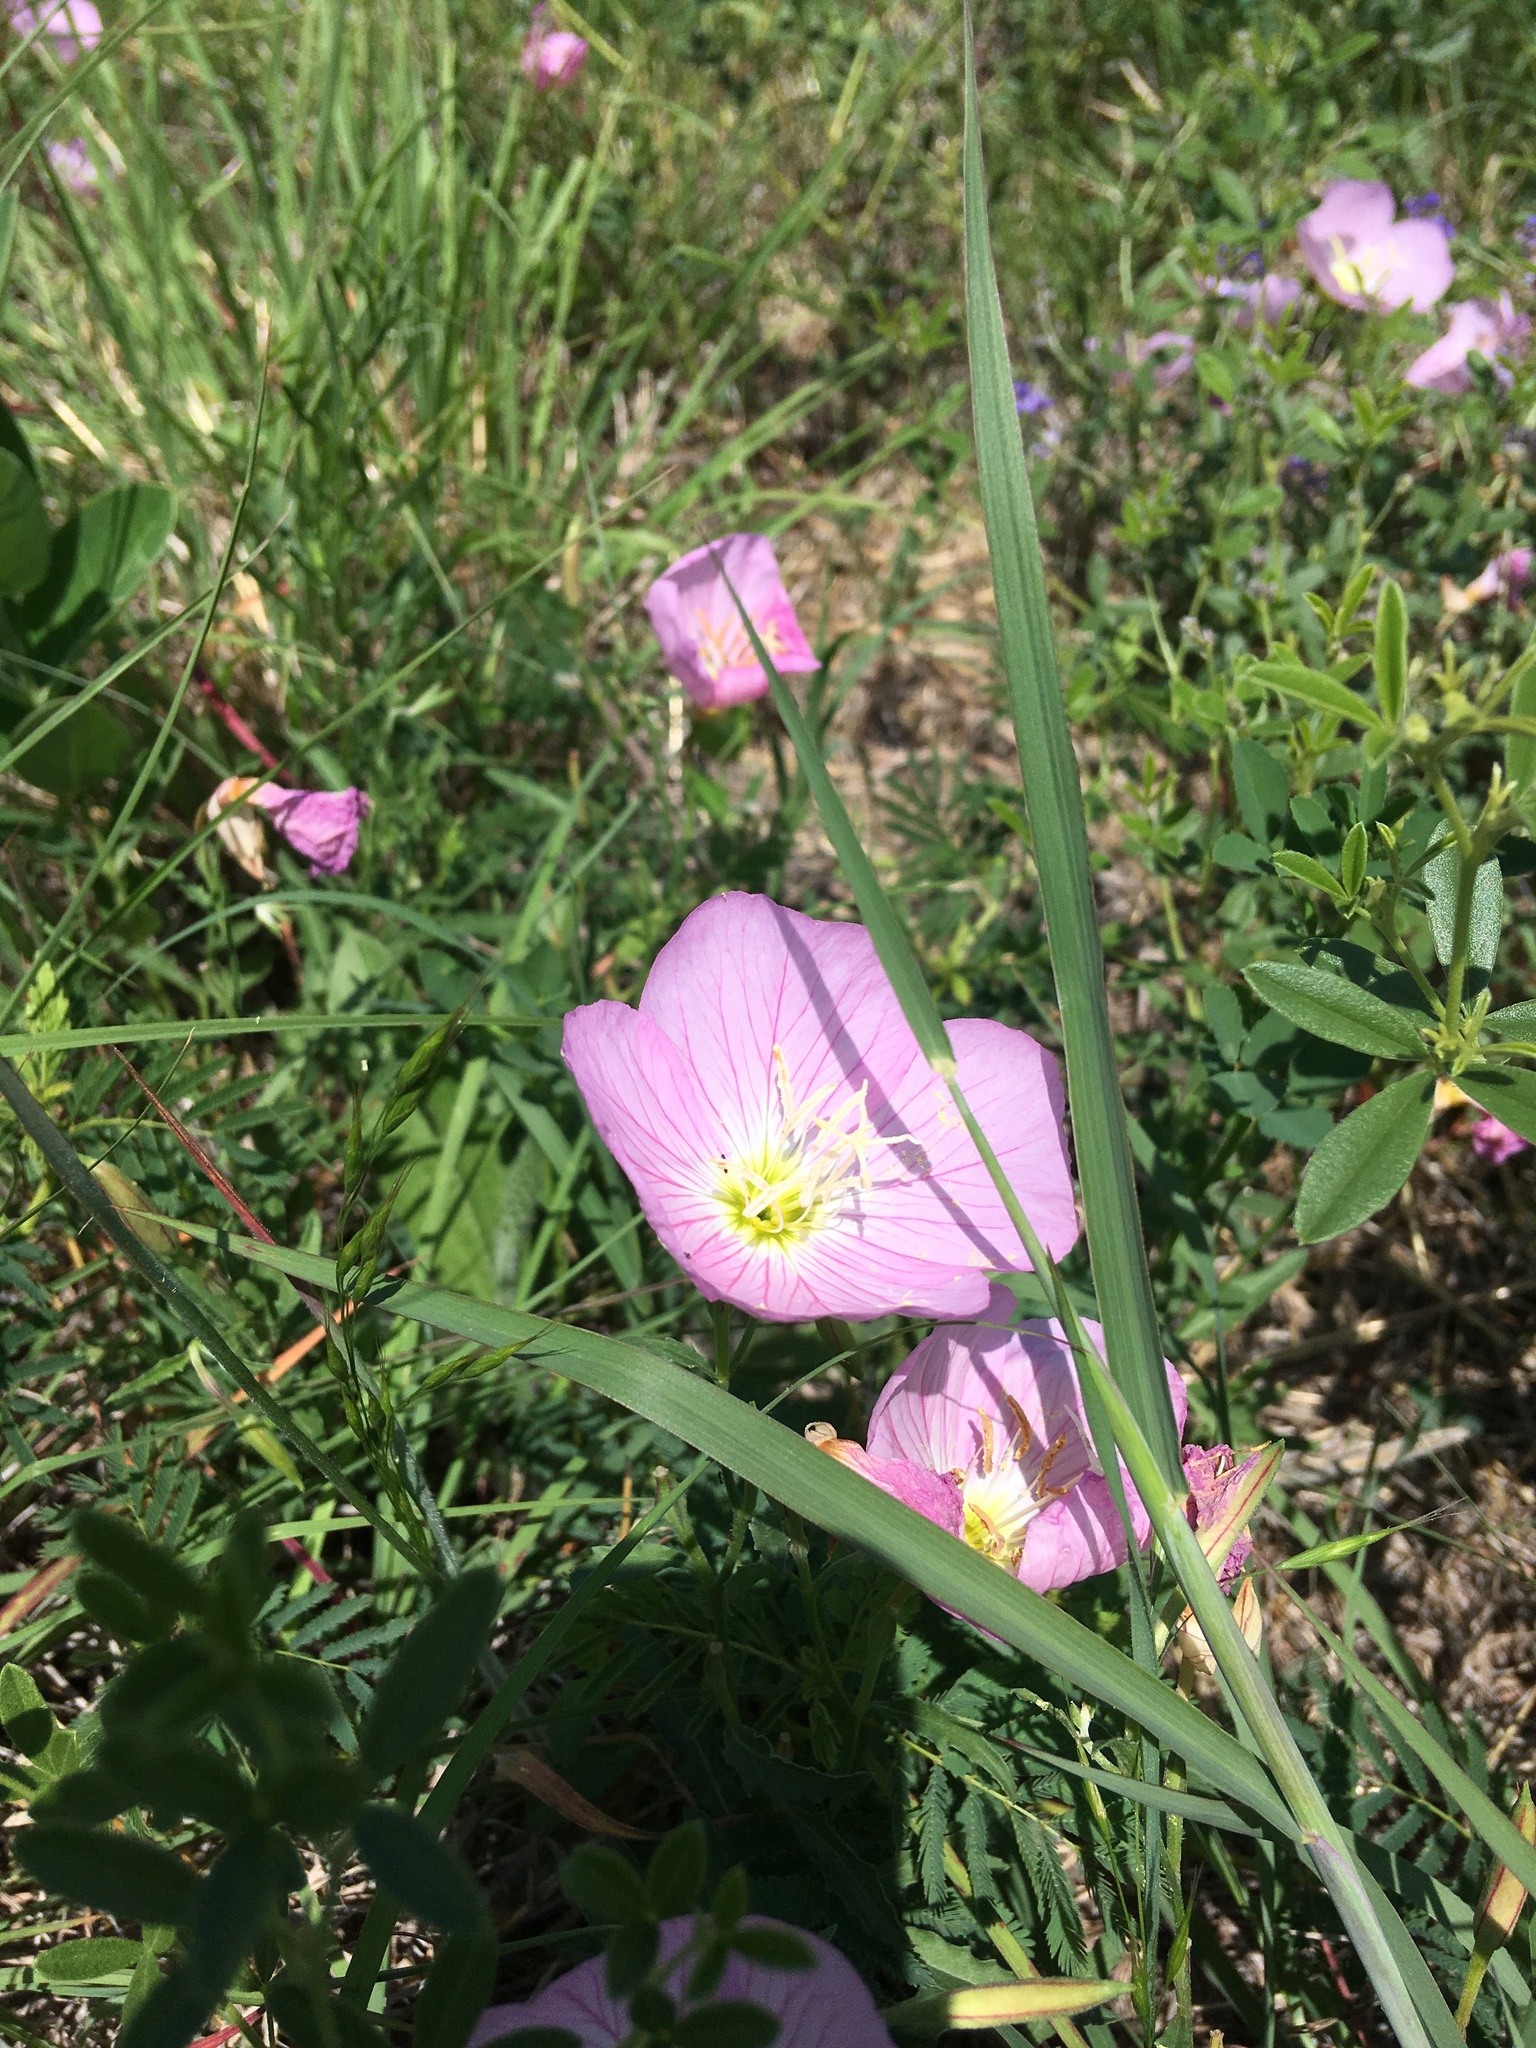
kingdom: Plantae
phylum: Tracheophyta
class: Magnoliopsida
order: Myrtales
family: Onagraceae
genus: Oenothera
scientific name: Oenothera speciosa
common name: White evening-primrose
